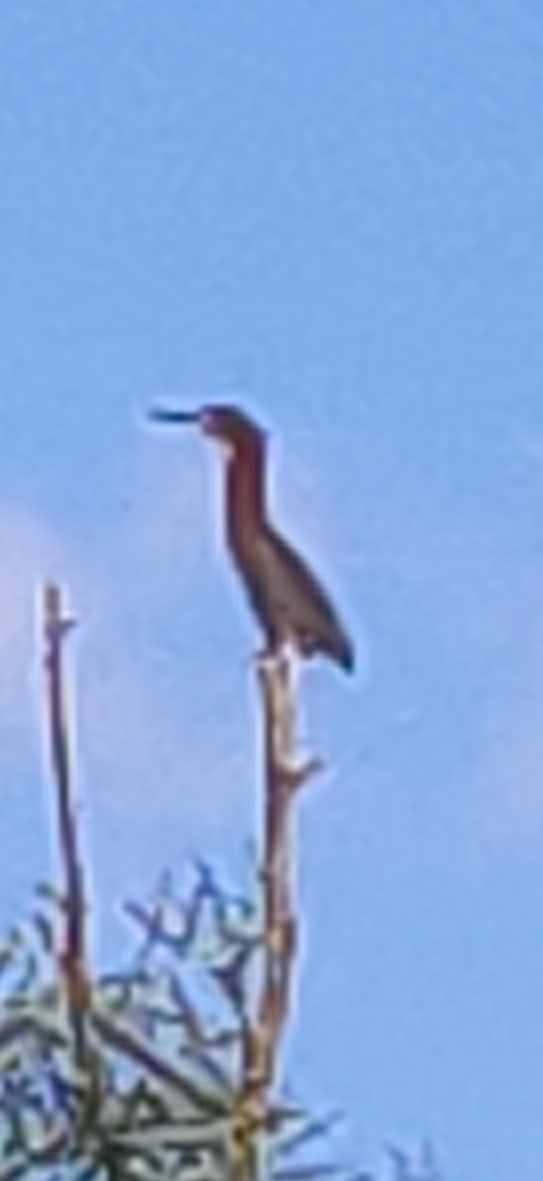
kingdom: Animalia
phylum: Chordata
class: Aves
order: Pelecaniformes
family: Ardeidae
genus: Butorides
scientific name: Butorides virescens
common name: Green heron
